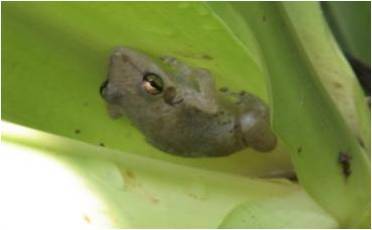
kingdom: Animalia
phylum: Chordata
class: Amphibia
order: Anura
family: Hylidae
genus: Scinax
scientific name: Scinax ruber
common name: Red snouted treefrog
